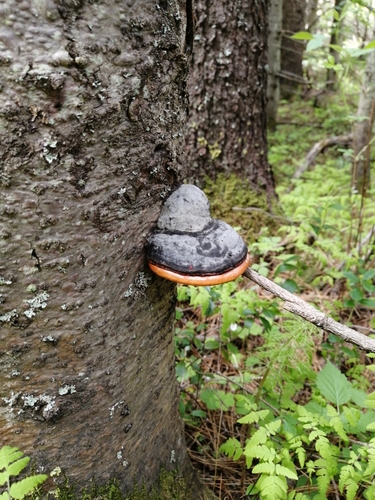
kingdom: Fungi
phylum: Basidiomycota
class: Agaricomycetes
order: Polyporales
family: Fomitopsidaceae
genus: Fomitopsis
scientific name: Fomitopsis pinicola
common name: Red-belted bracket
